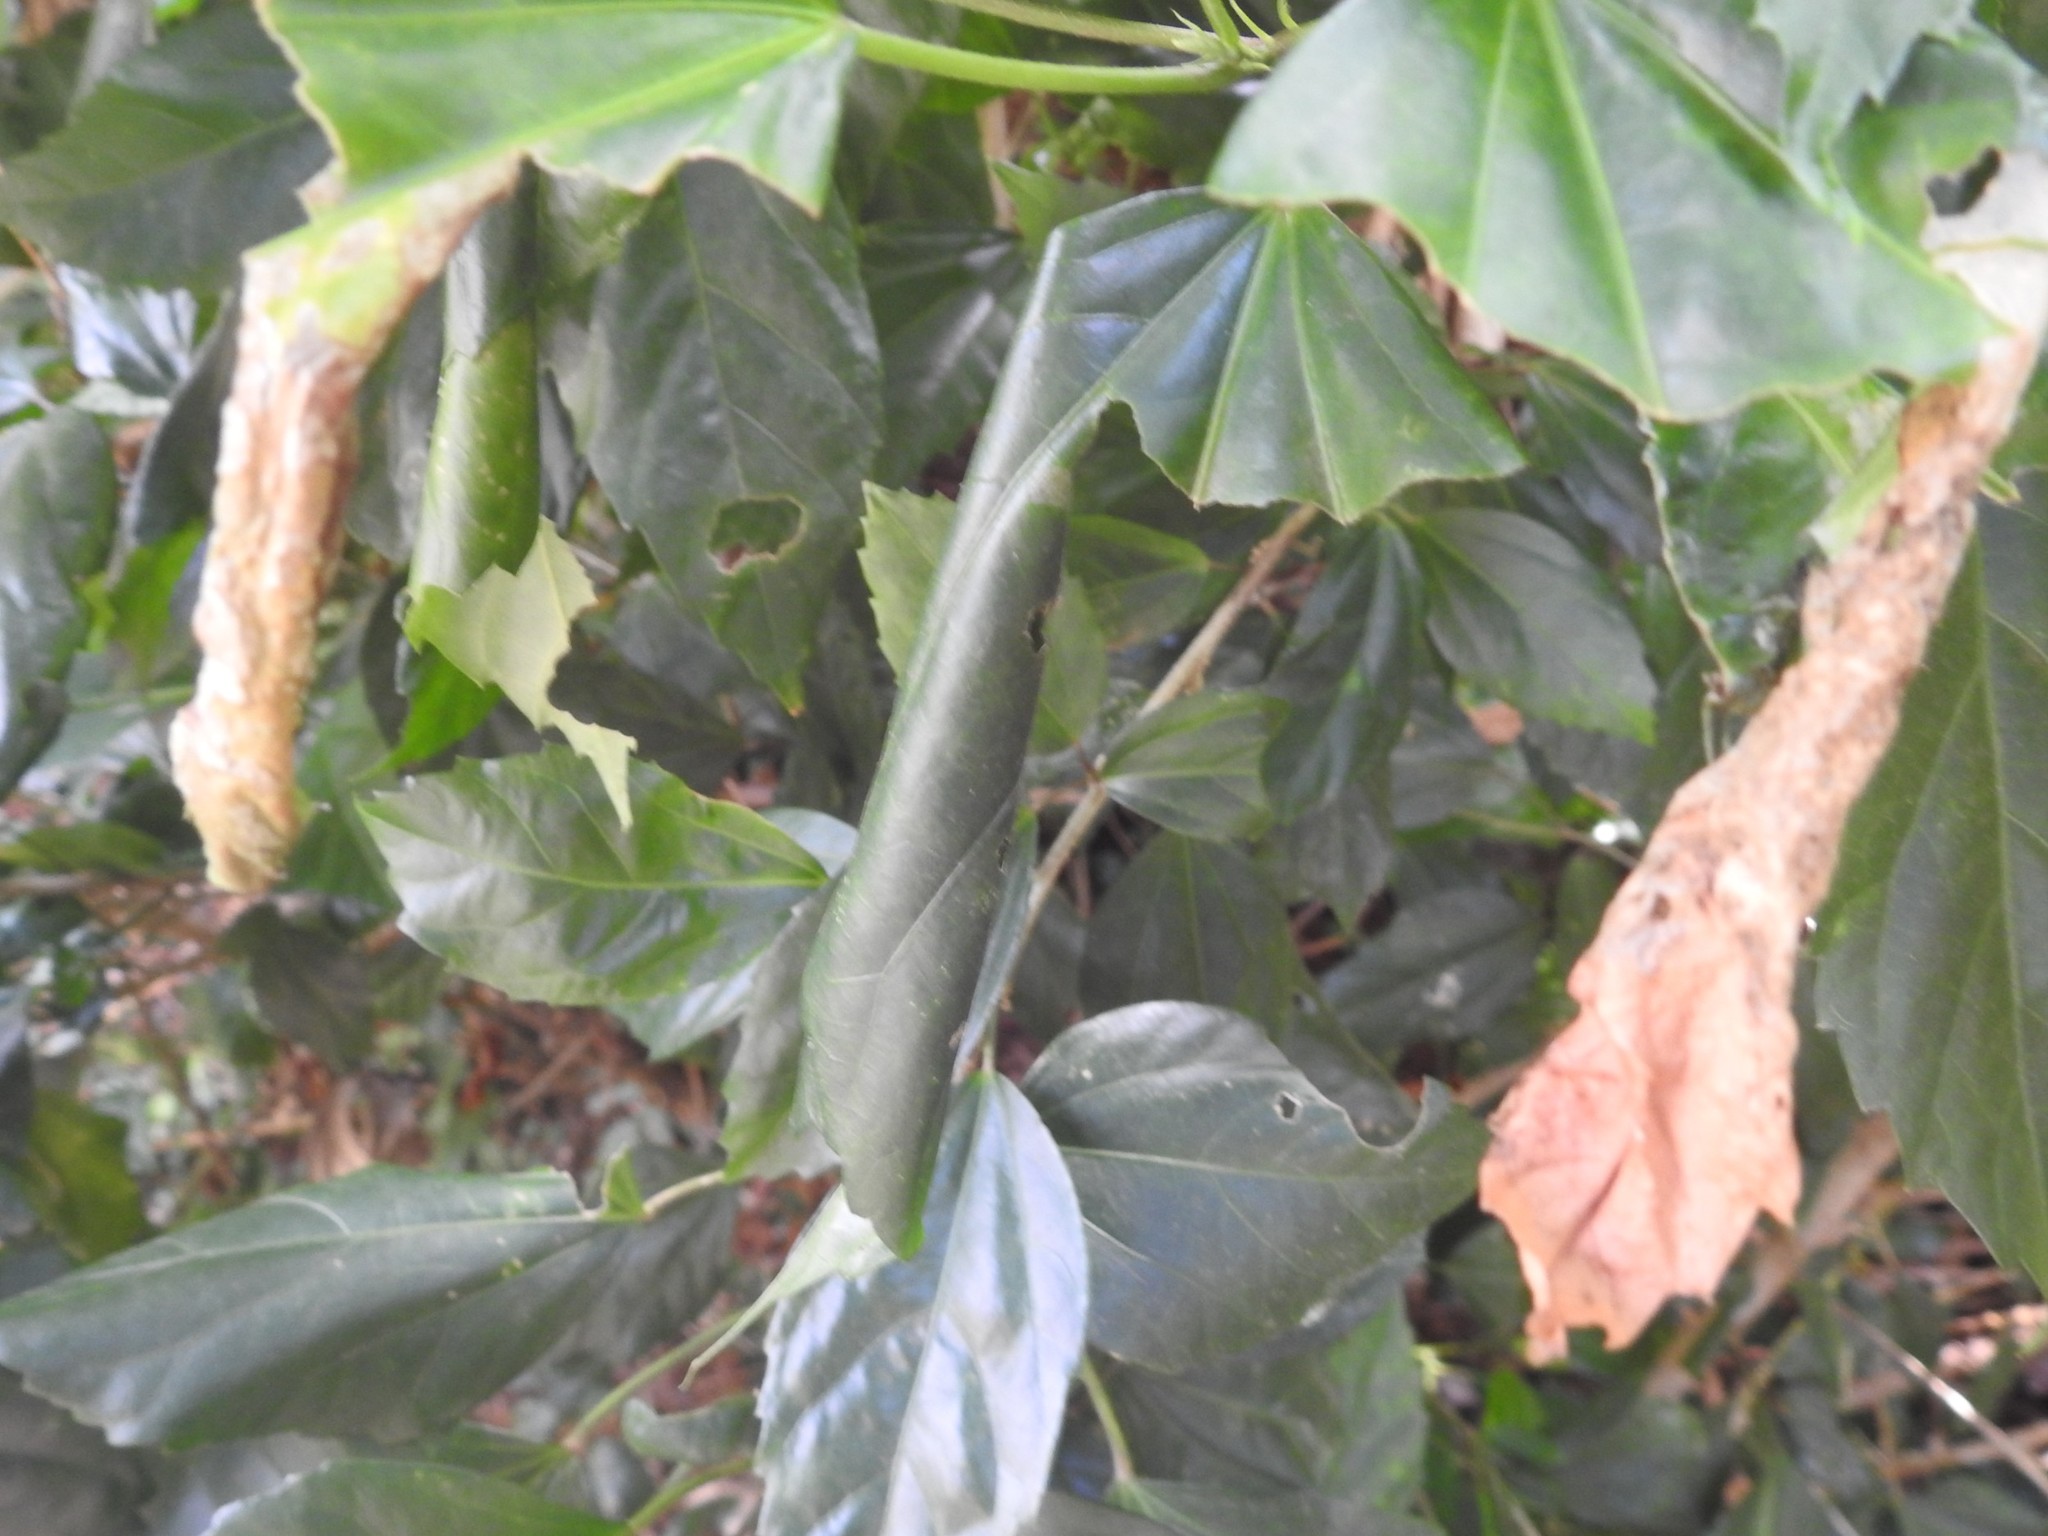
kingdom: Animalia
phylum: Arthropoda
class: Insecta
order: Lepidoptera
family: Crambidae
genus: Haritalodes
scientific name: Haritalodes derogata
